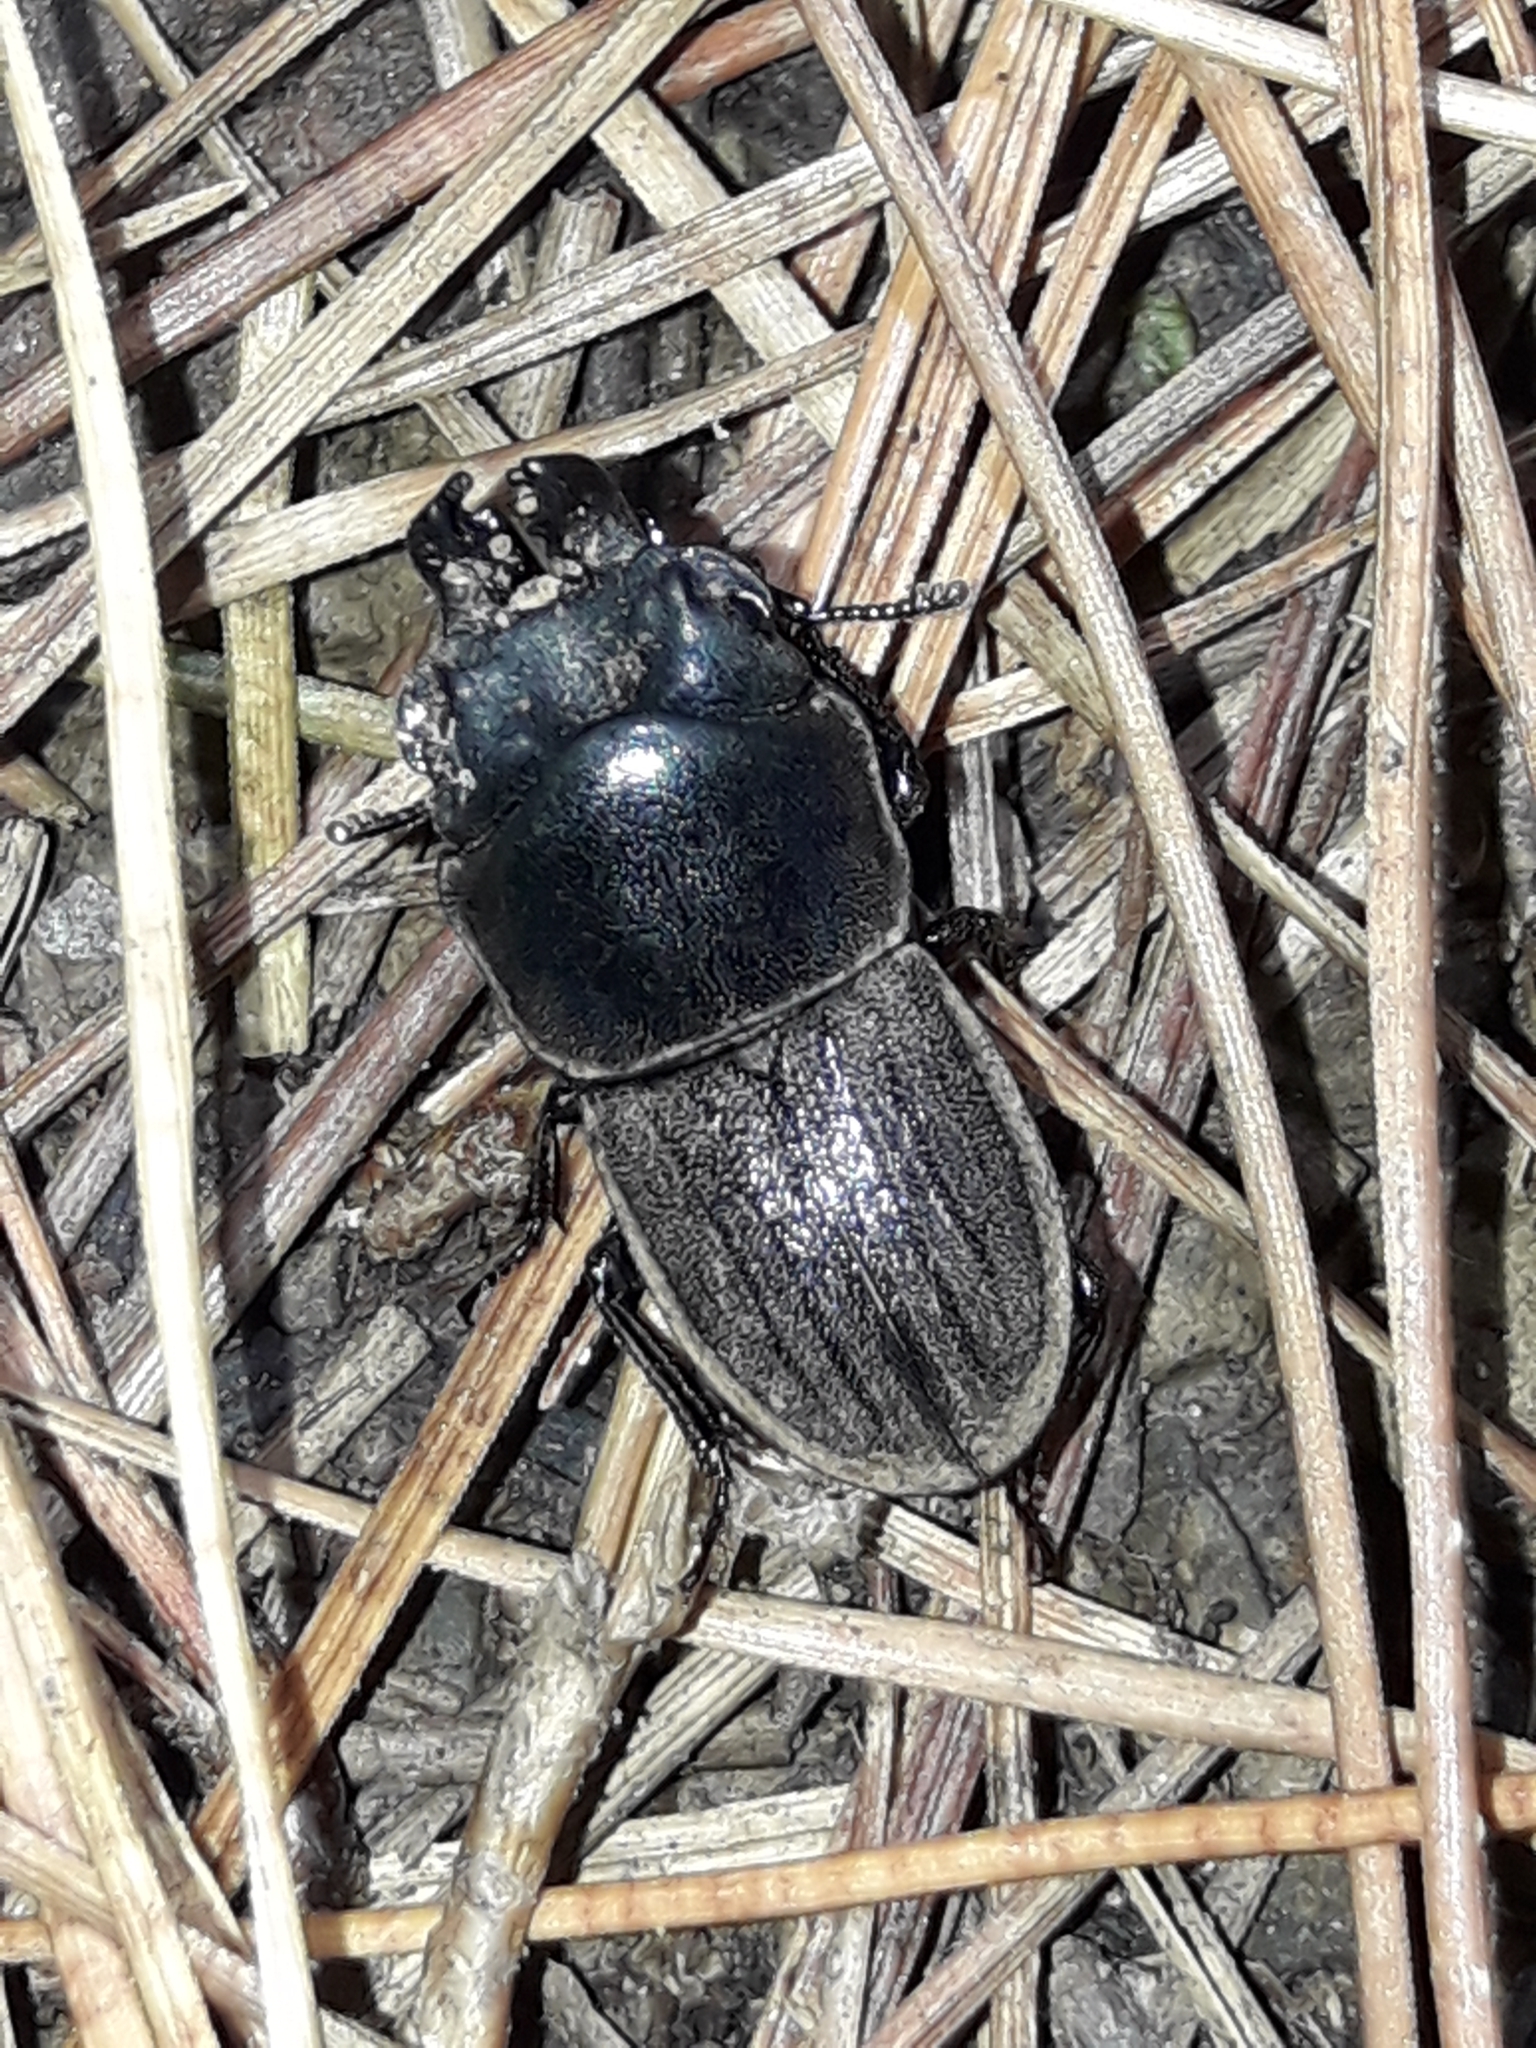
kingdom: Animalia
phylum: Arthropoda
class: Insecta
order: Coleoptera
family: Lucanidae
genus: Geodorcus
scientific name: Geodorcus novaezealandiae
